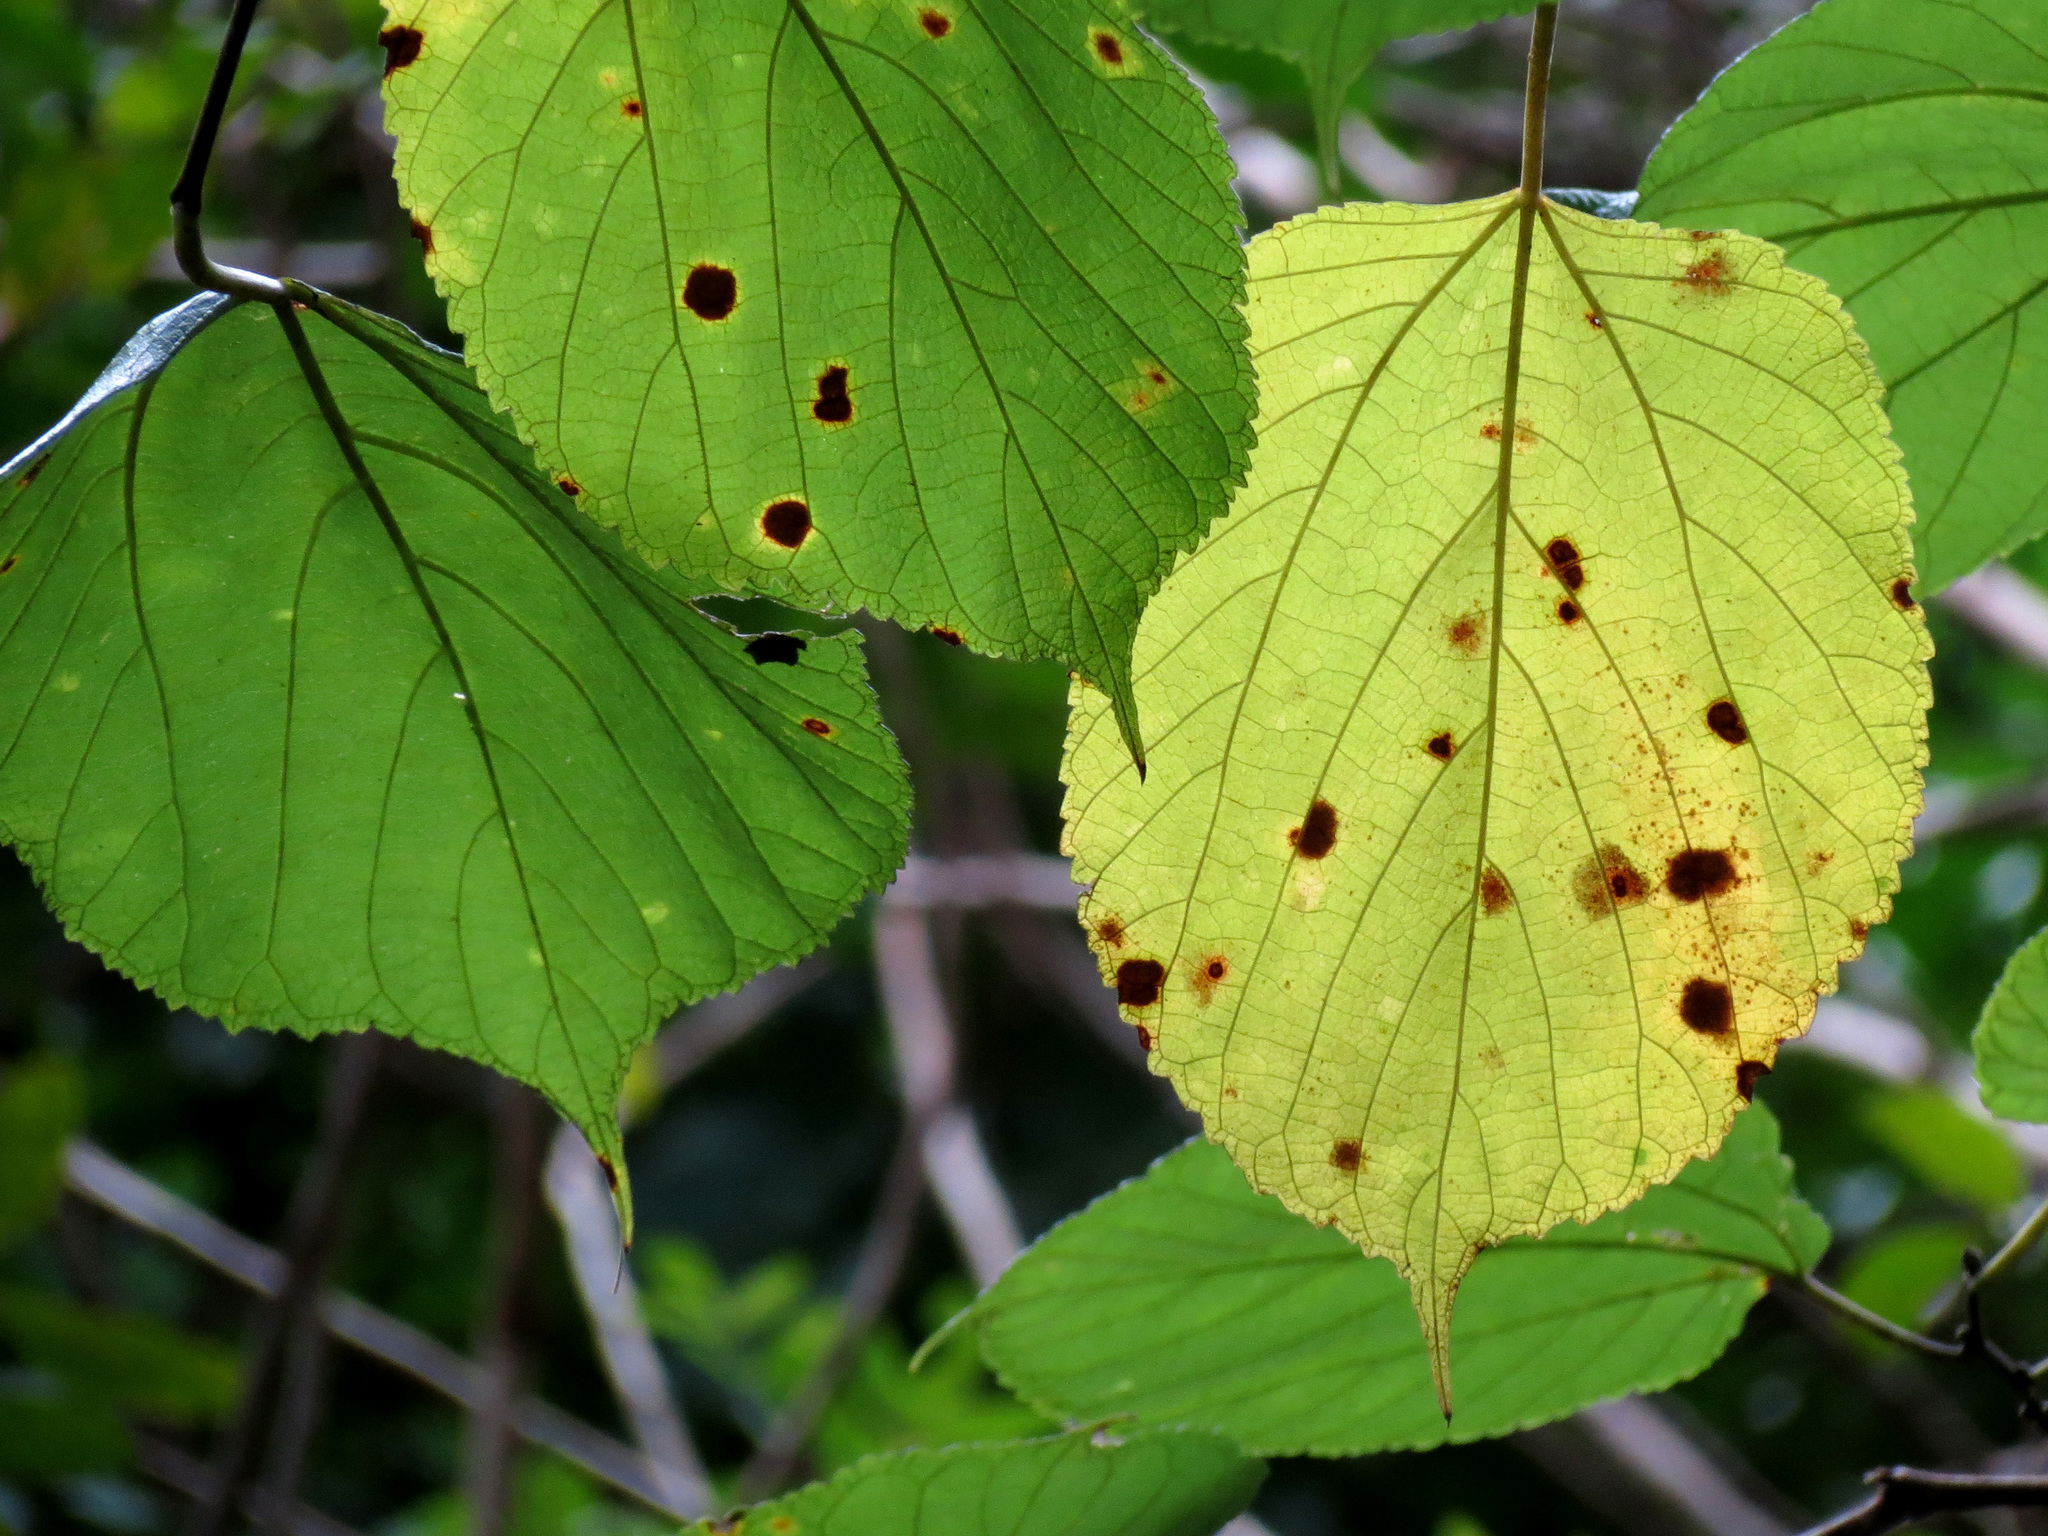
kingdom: Plantae
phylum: Tracheophyta
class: Magnoliopsida
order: Malvales
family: Malvaceae
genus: Tilia
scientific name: Tilia americana
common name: Basswood
